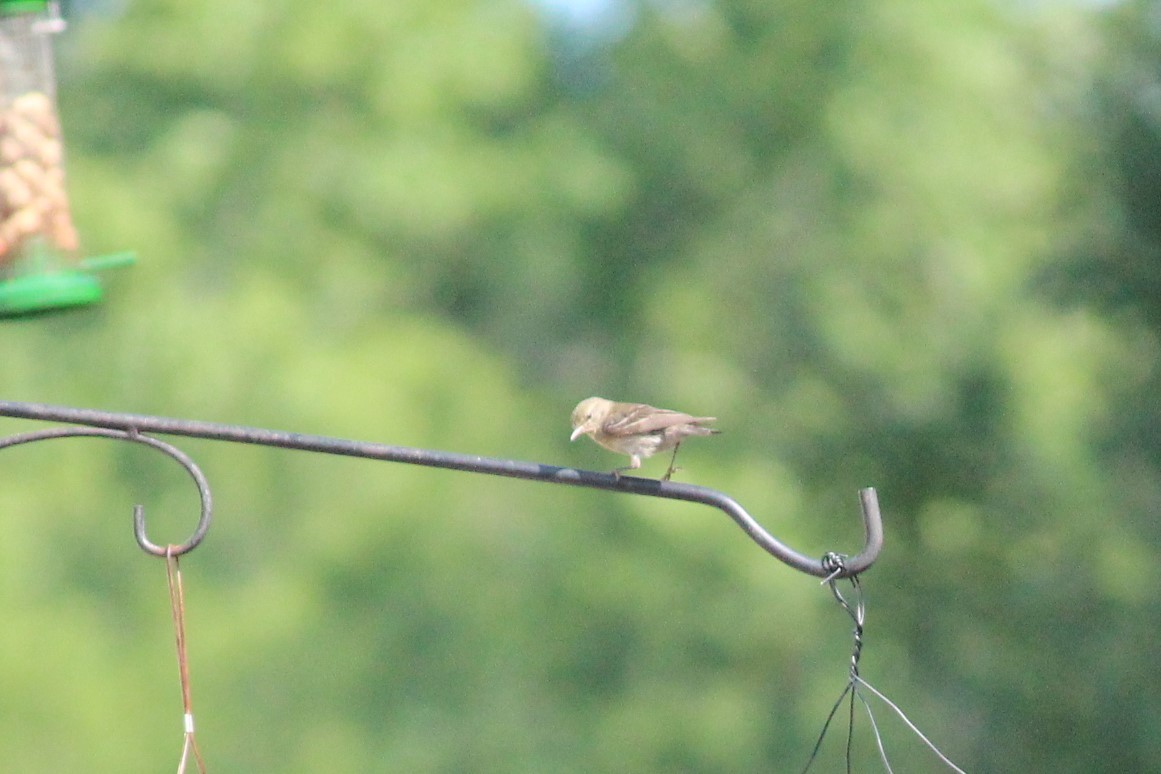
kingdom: Animalia
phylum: Chordata
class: Aves
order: Passeriformes
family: Parulidae
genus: Setophaga
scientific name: Setophaga pinus
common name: Pine warbler
